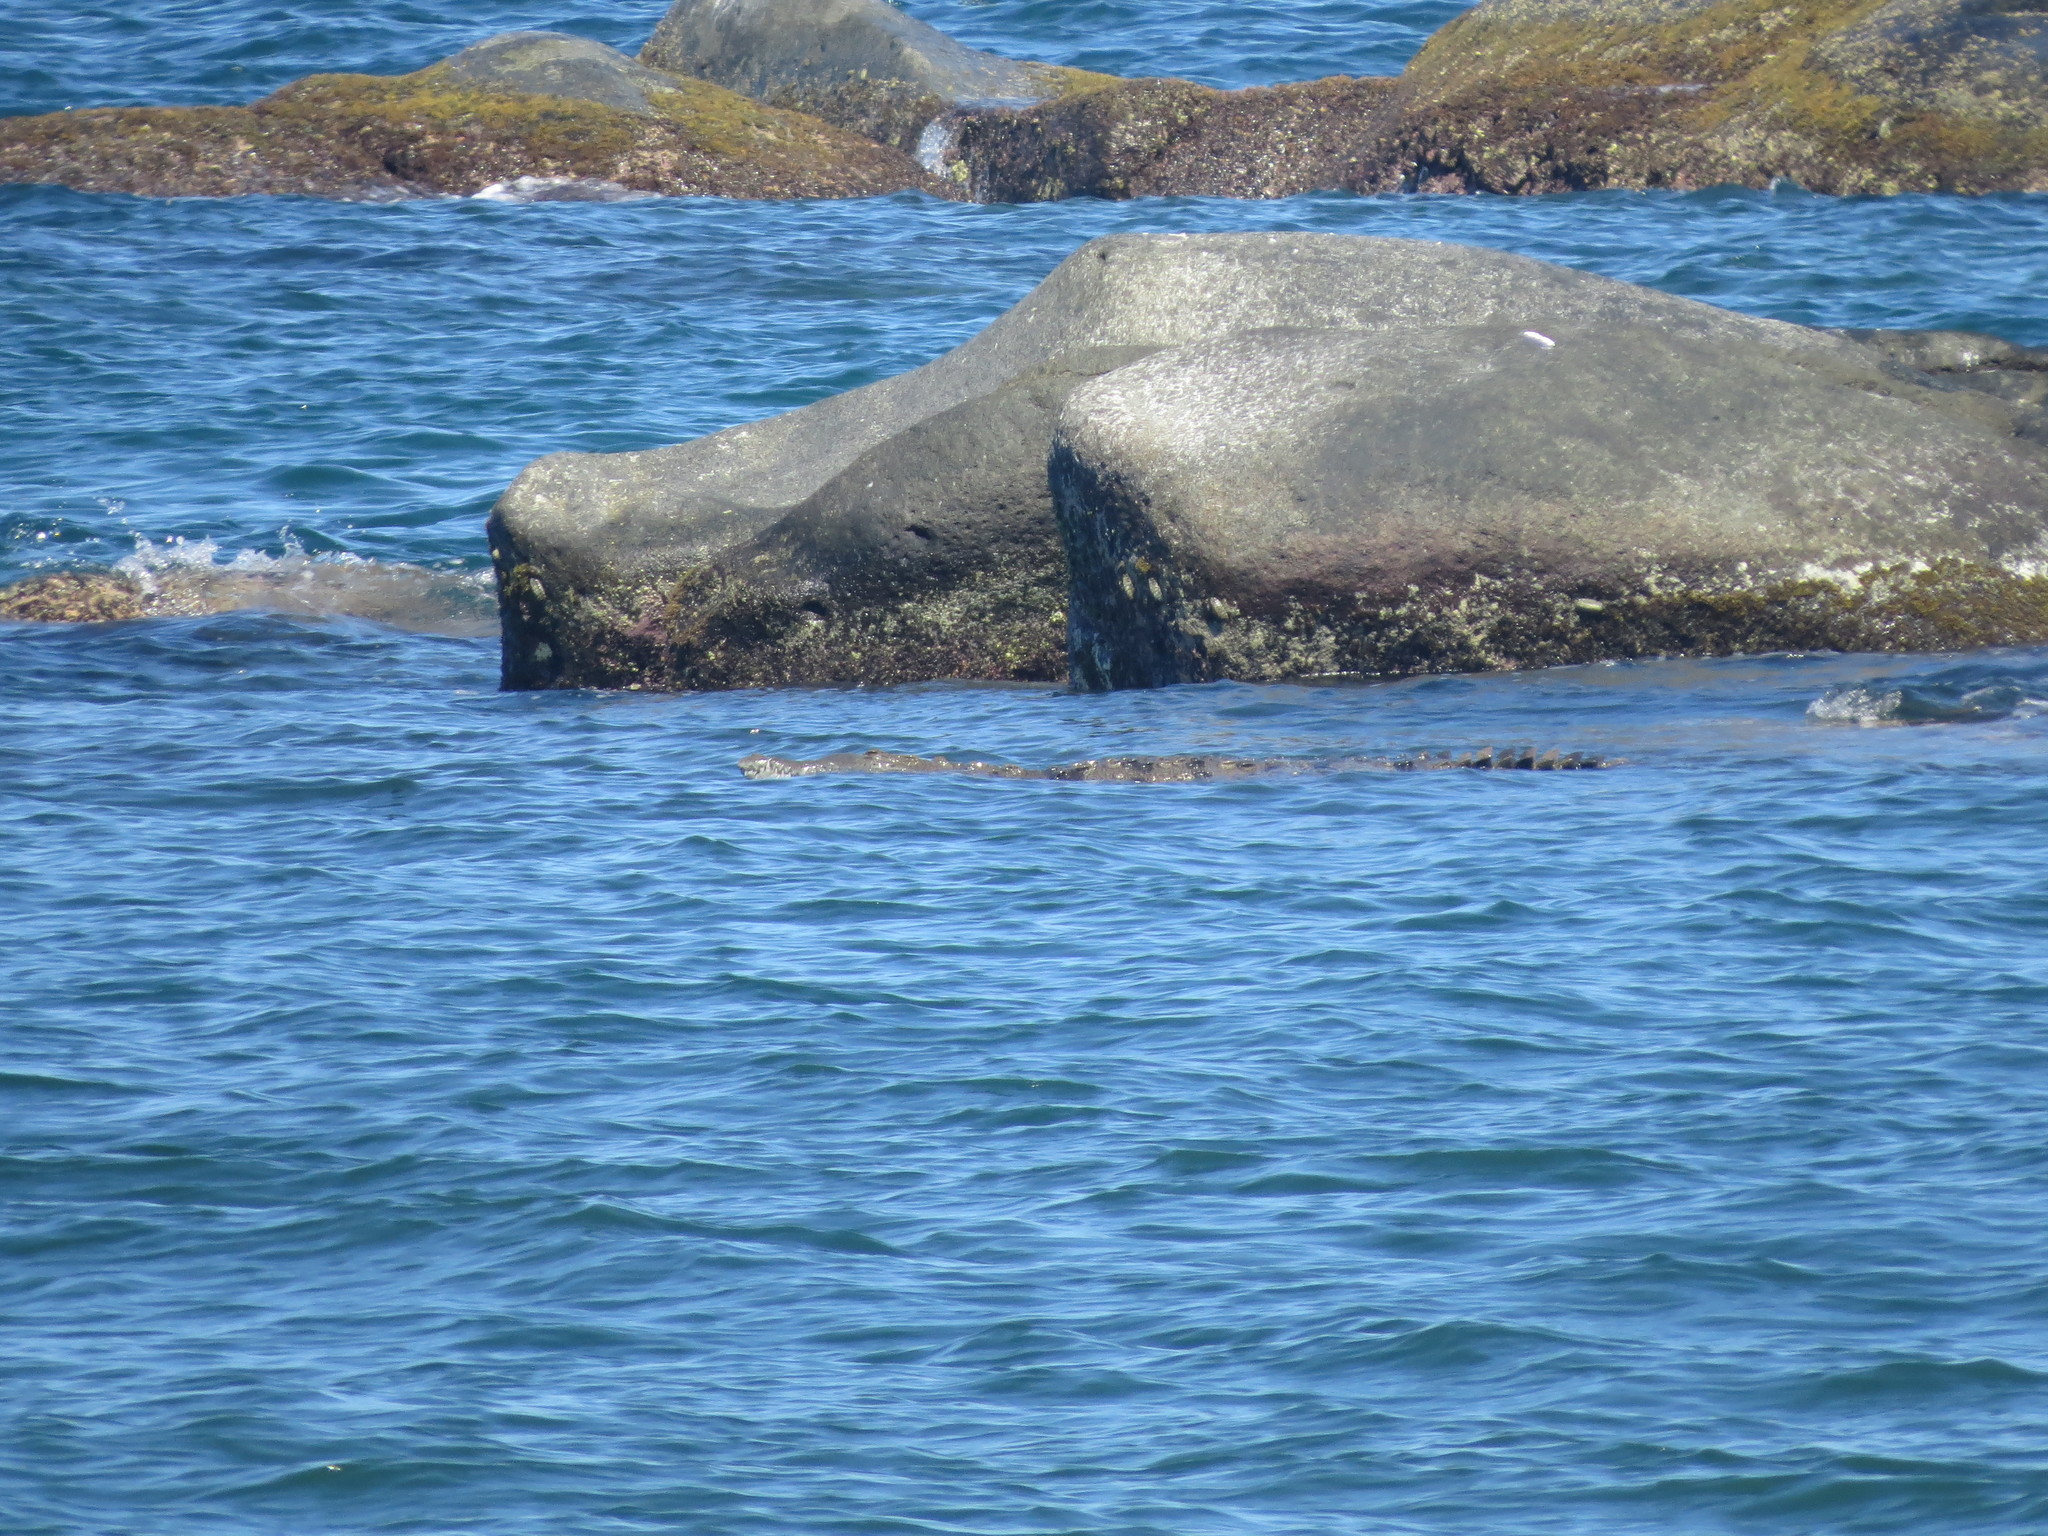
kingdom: Animalia
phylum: Chordata
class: Crocodylia
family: Crocodylidae
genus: Crocodylus
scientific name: Crocodylus acutus
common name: American crocodile
